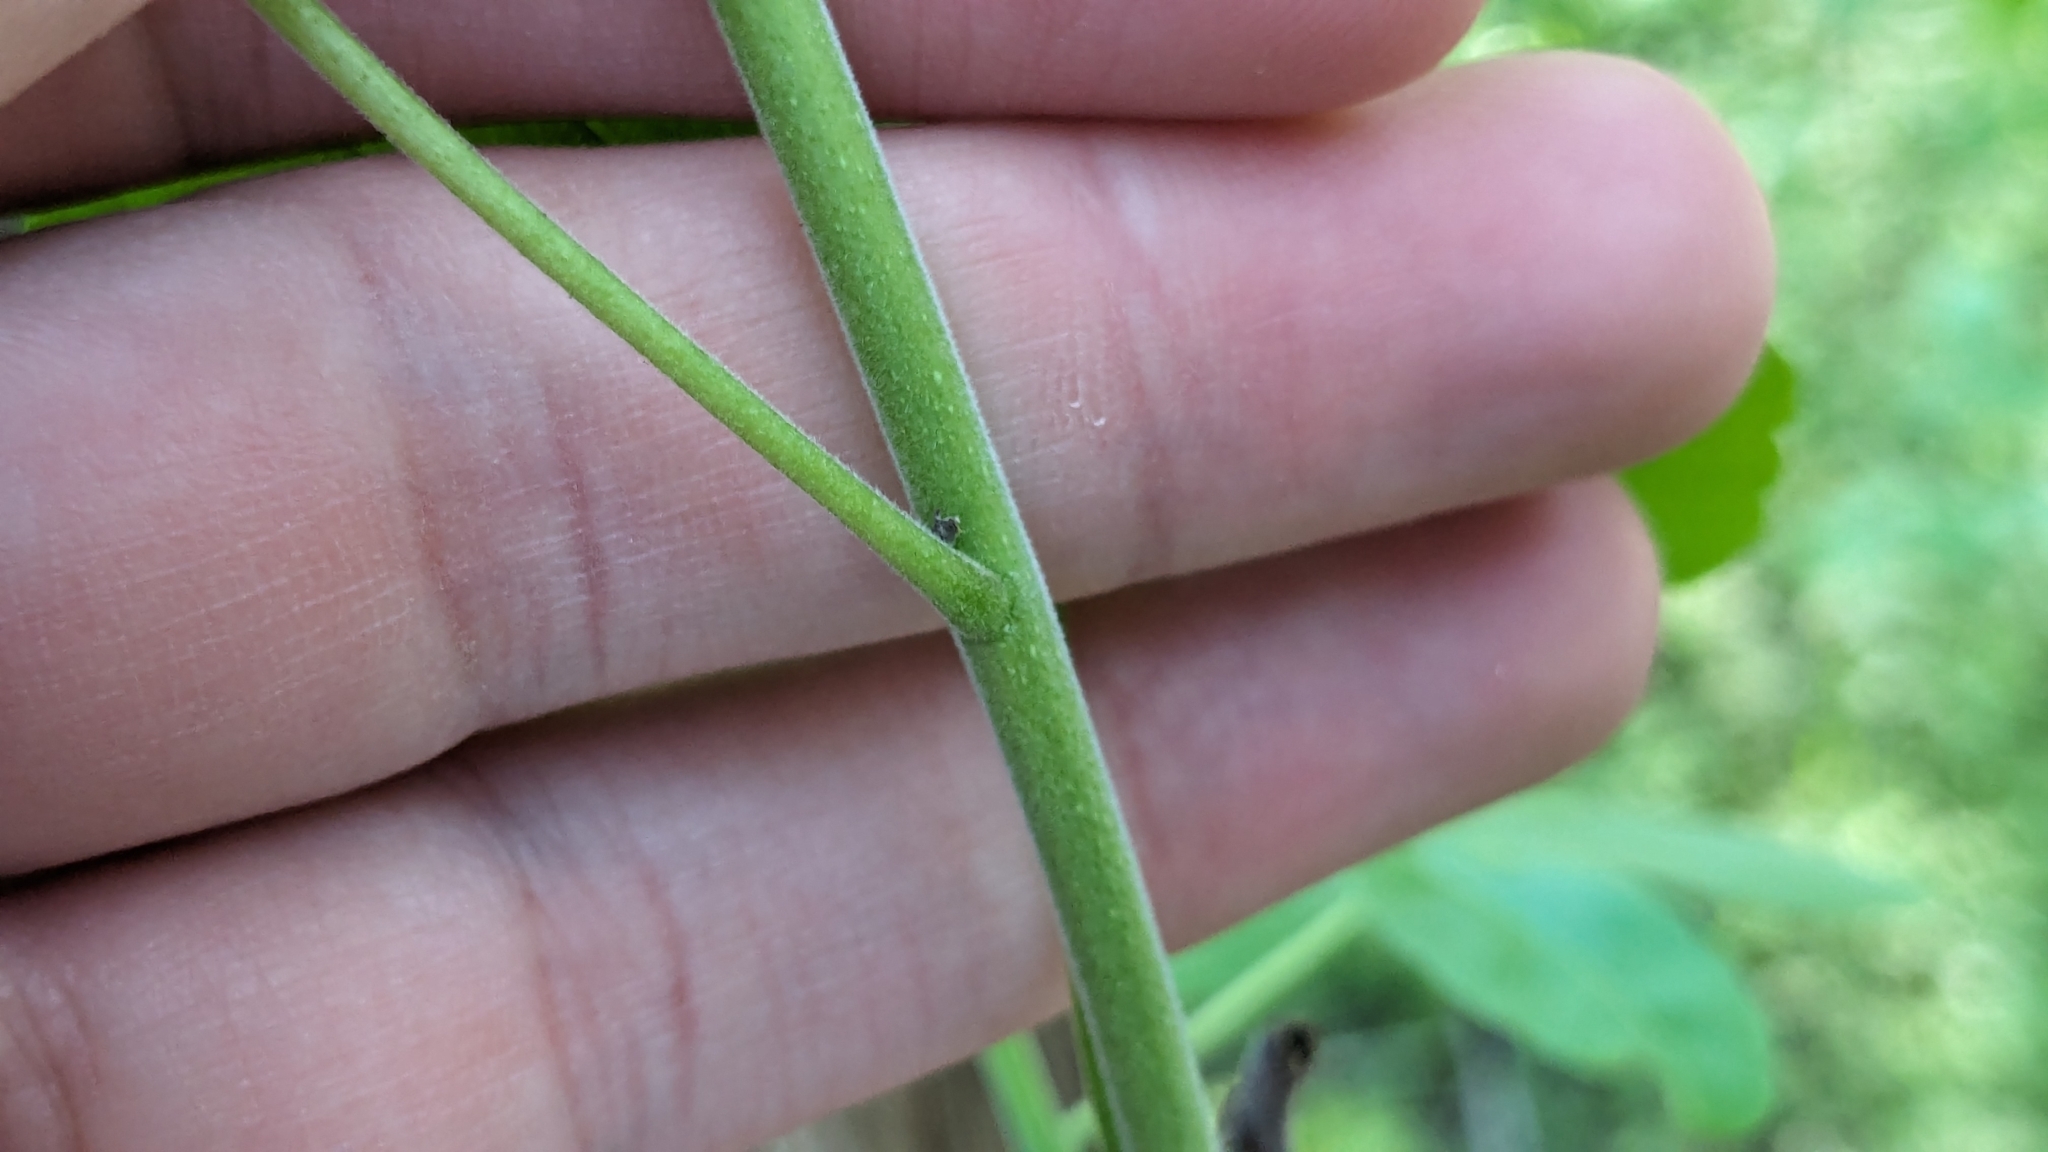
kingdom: Plantae
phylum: Tracheophyta
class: Magnoliopsida
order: Sapindales
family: Rutaceae
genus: Ptelea
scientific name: Ptelea trifoliata
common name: Common hop-tree
